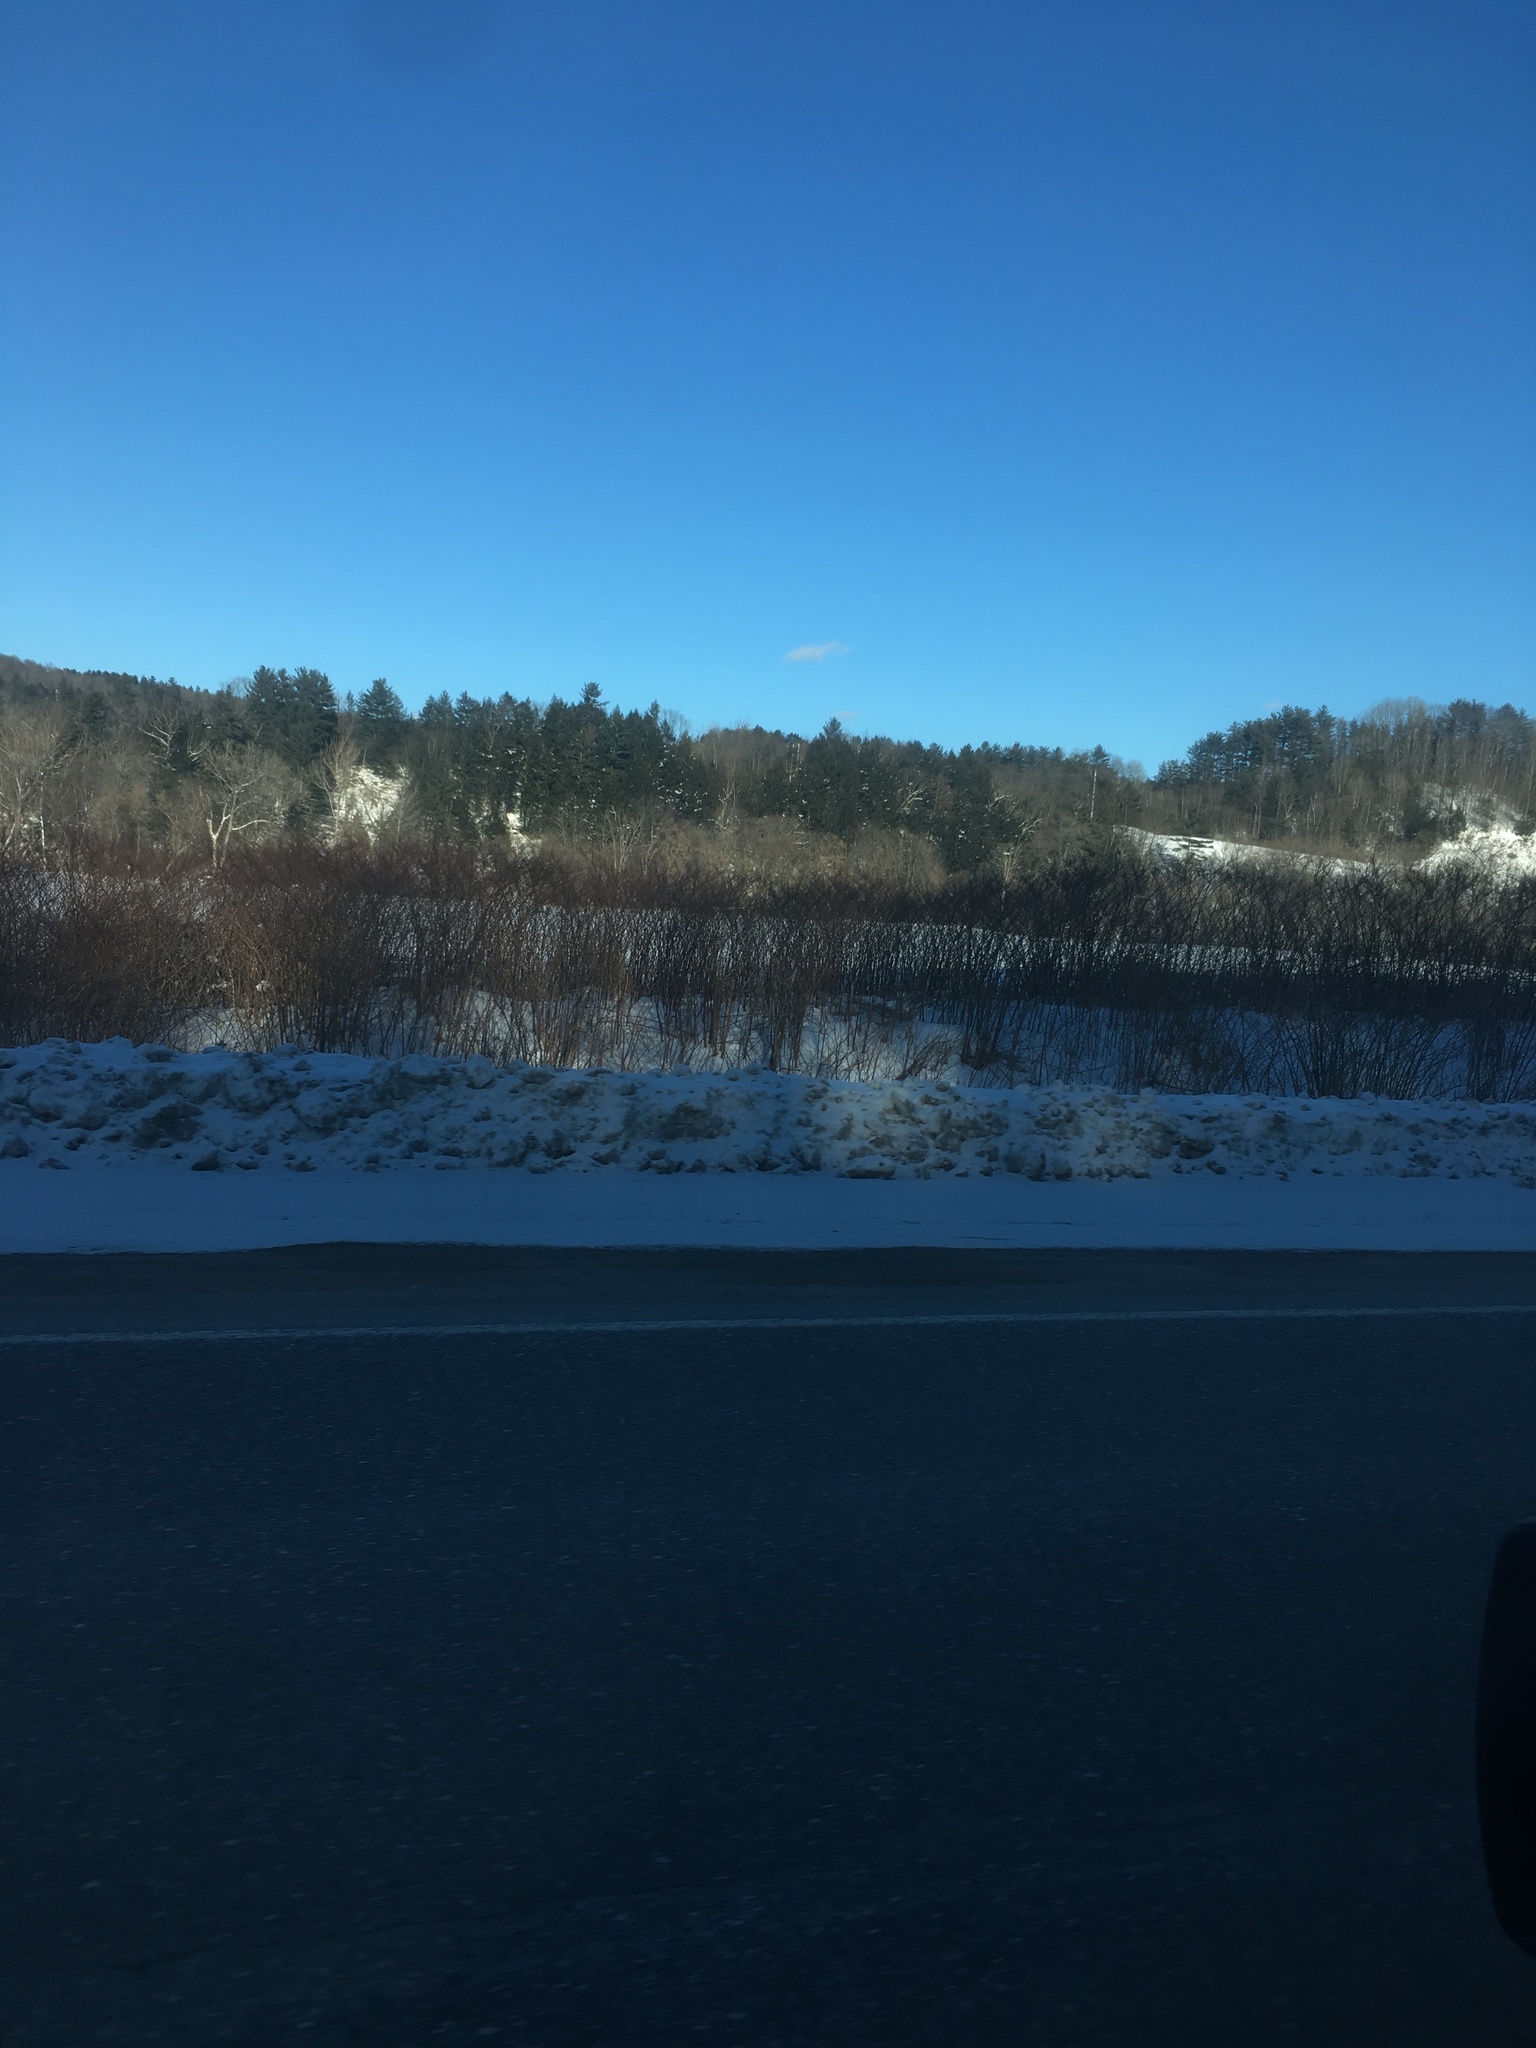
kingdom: Plantae
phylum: Tracheophyta
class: Magnoliopsida
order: Caryophyllales
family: Polygonaceae
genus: Reynoutria
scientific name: Reynoutria japonica
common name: Japanese knotweed
